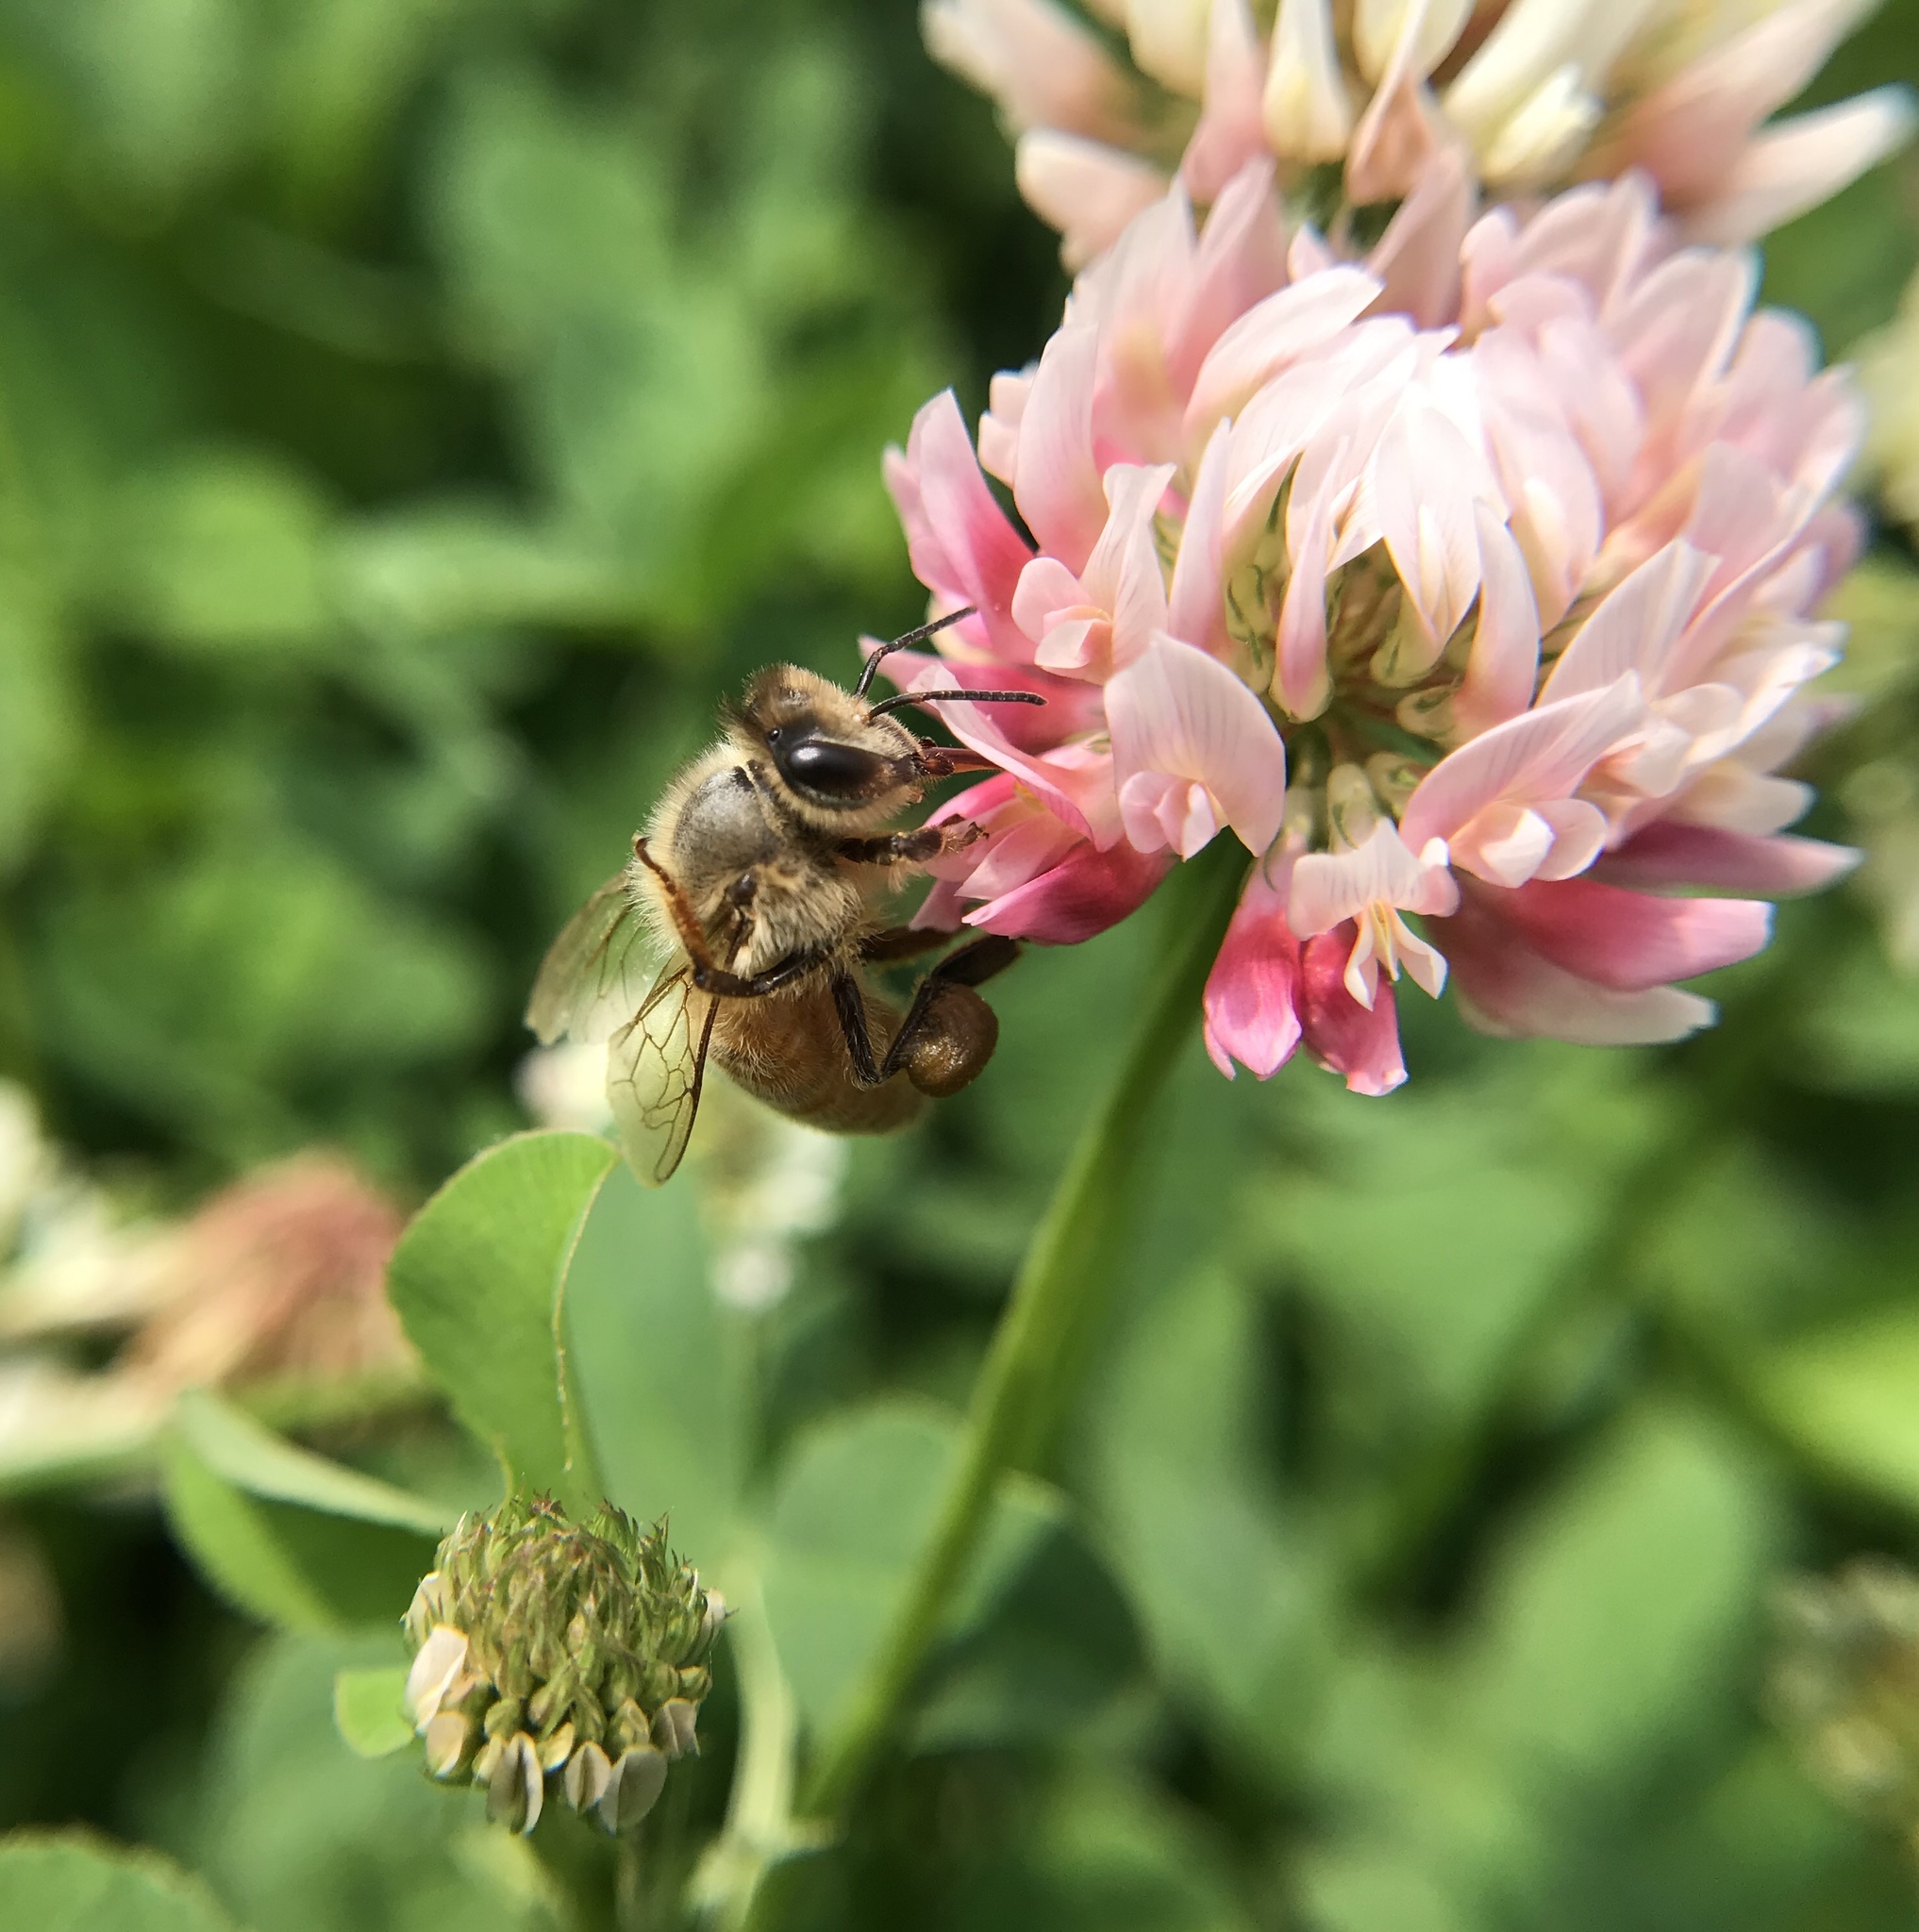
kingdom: Animalia
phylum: Arthropoda
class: Insecta
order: Hymenoptera
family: Apidae
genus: Apis
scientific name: Apis mellifera
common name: Honey bee
